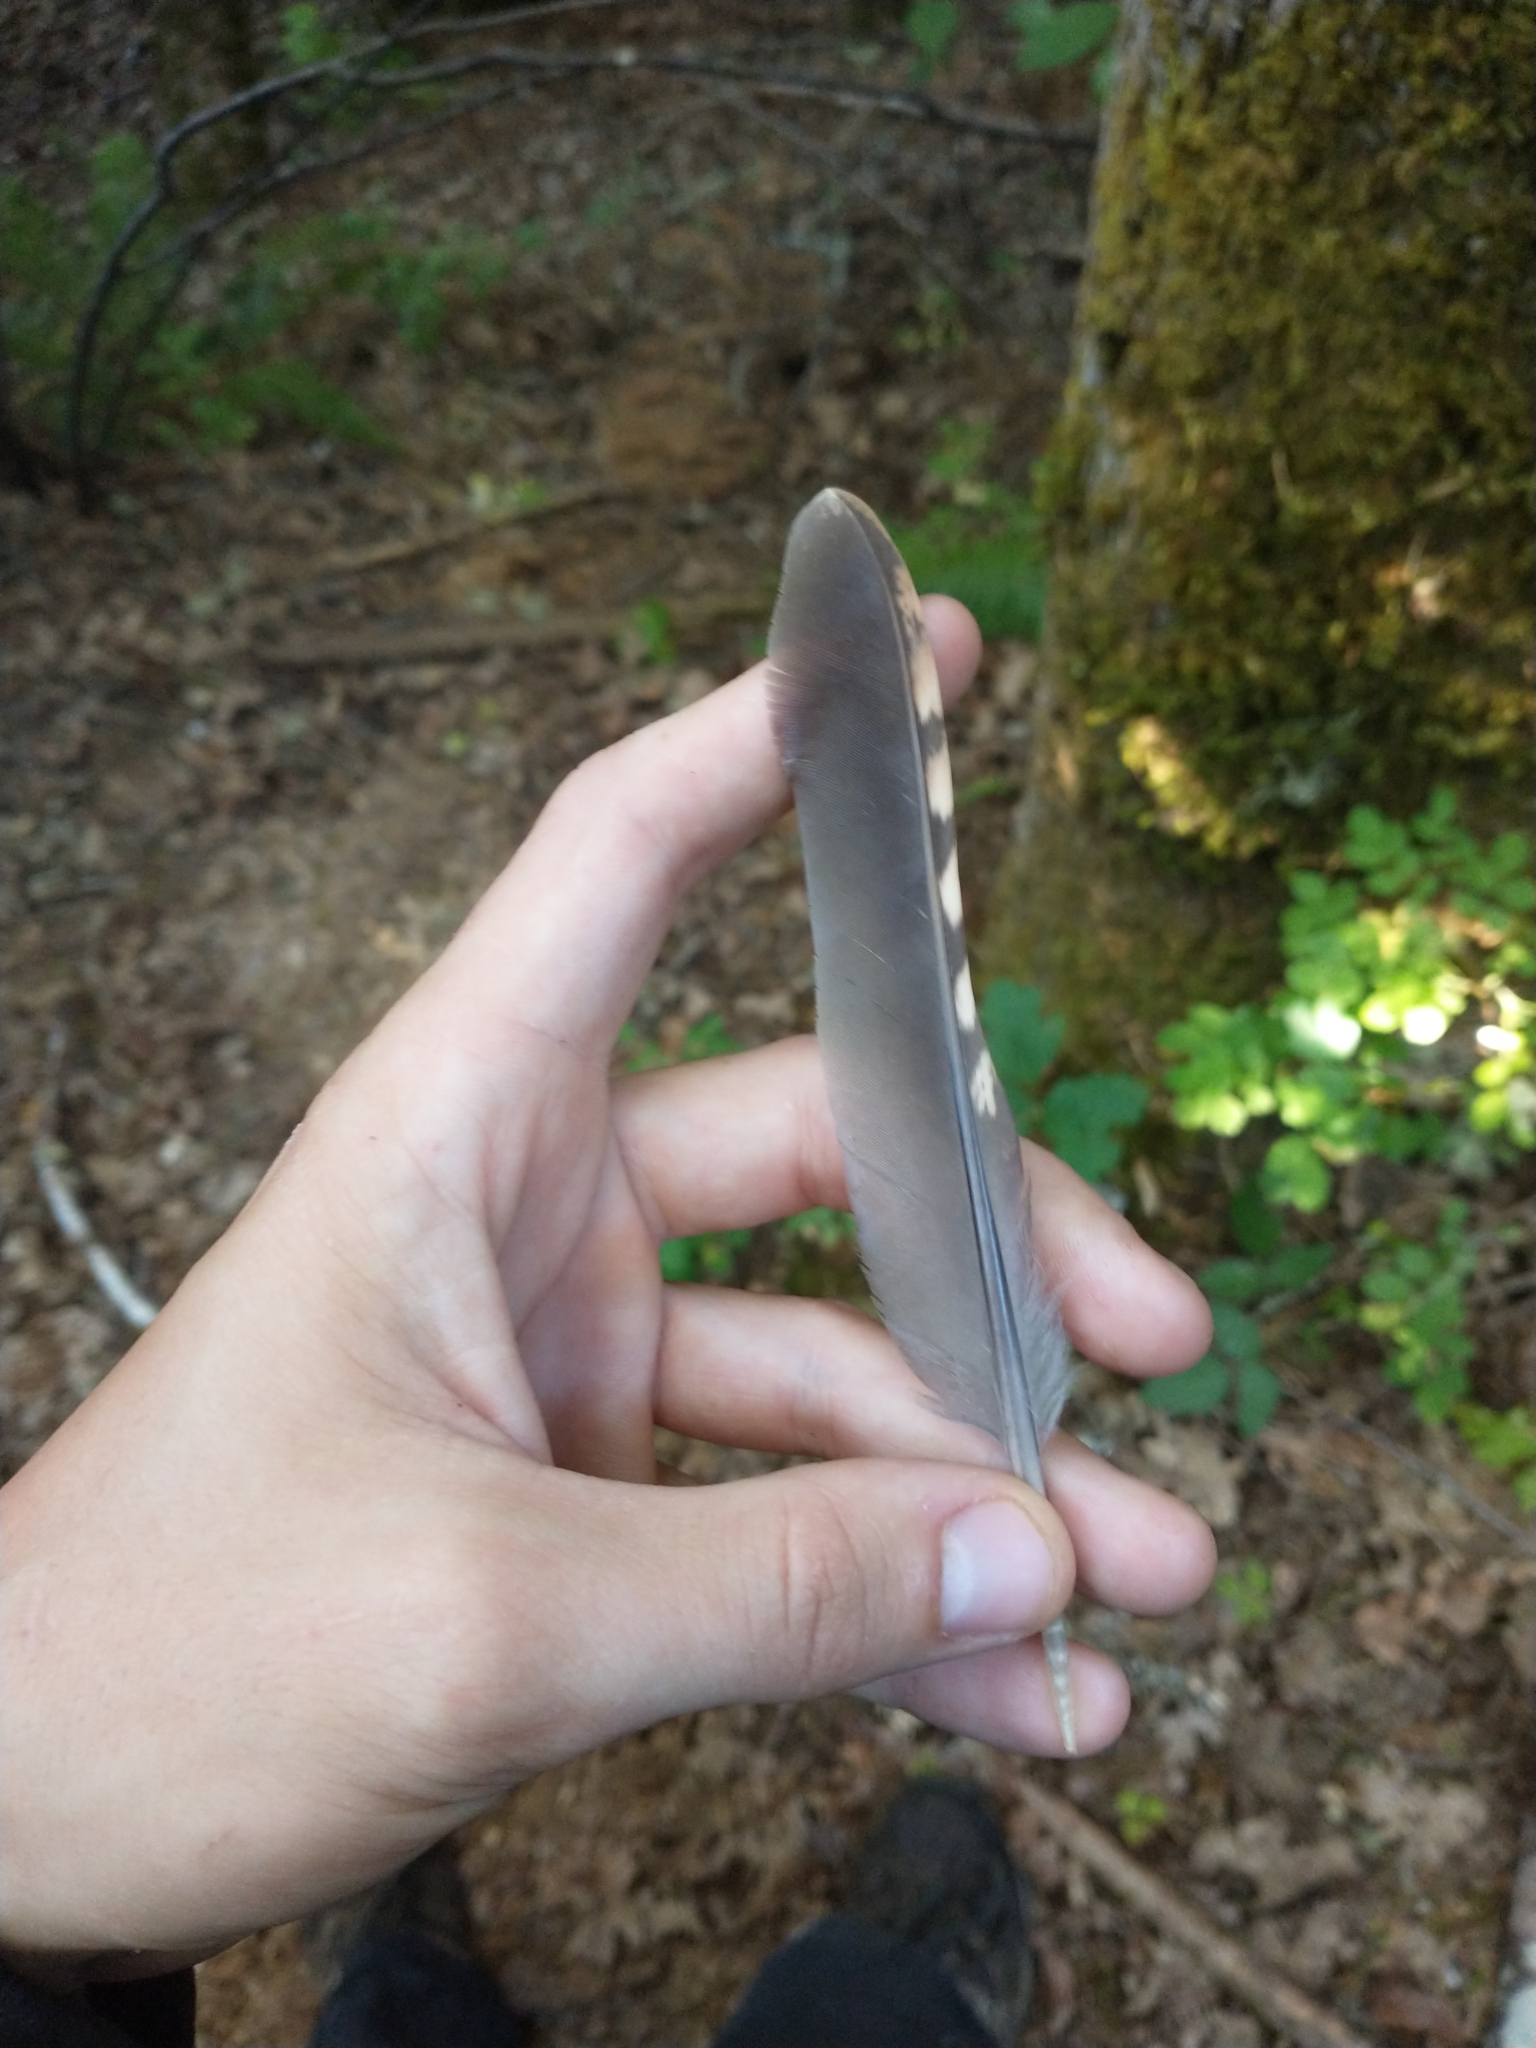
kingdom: Animalia
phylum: Chordata
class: Aves
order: Galliformes
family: Phasianidae
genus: Bonasa
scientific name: Bonasa umbellus
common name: Ruffed grouse
